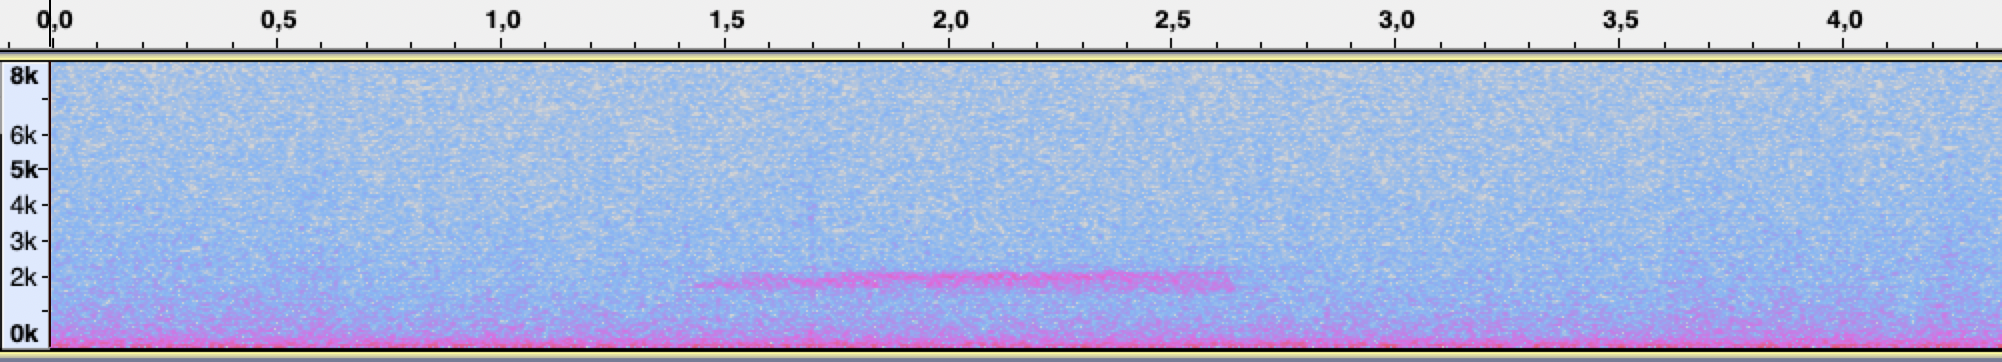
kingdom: Animalia
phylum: Chordata
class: Aves
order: Strigiformes
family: Tytonidae
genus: Tyto
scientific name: Tyto alba
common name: Barn owl
